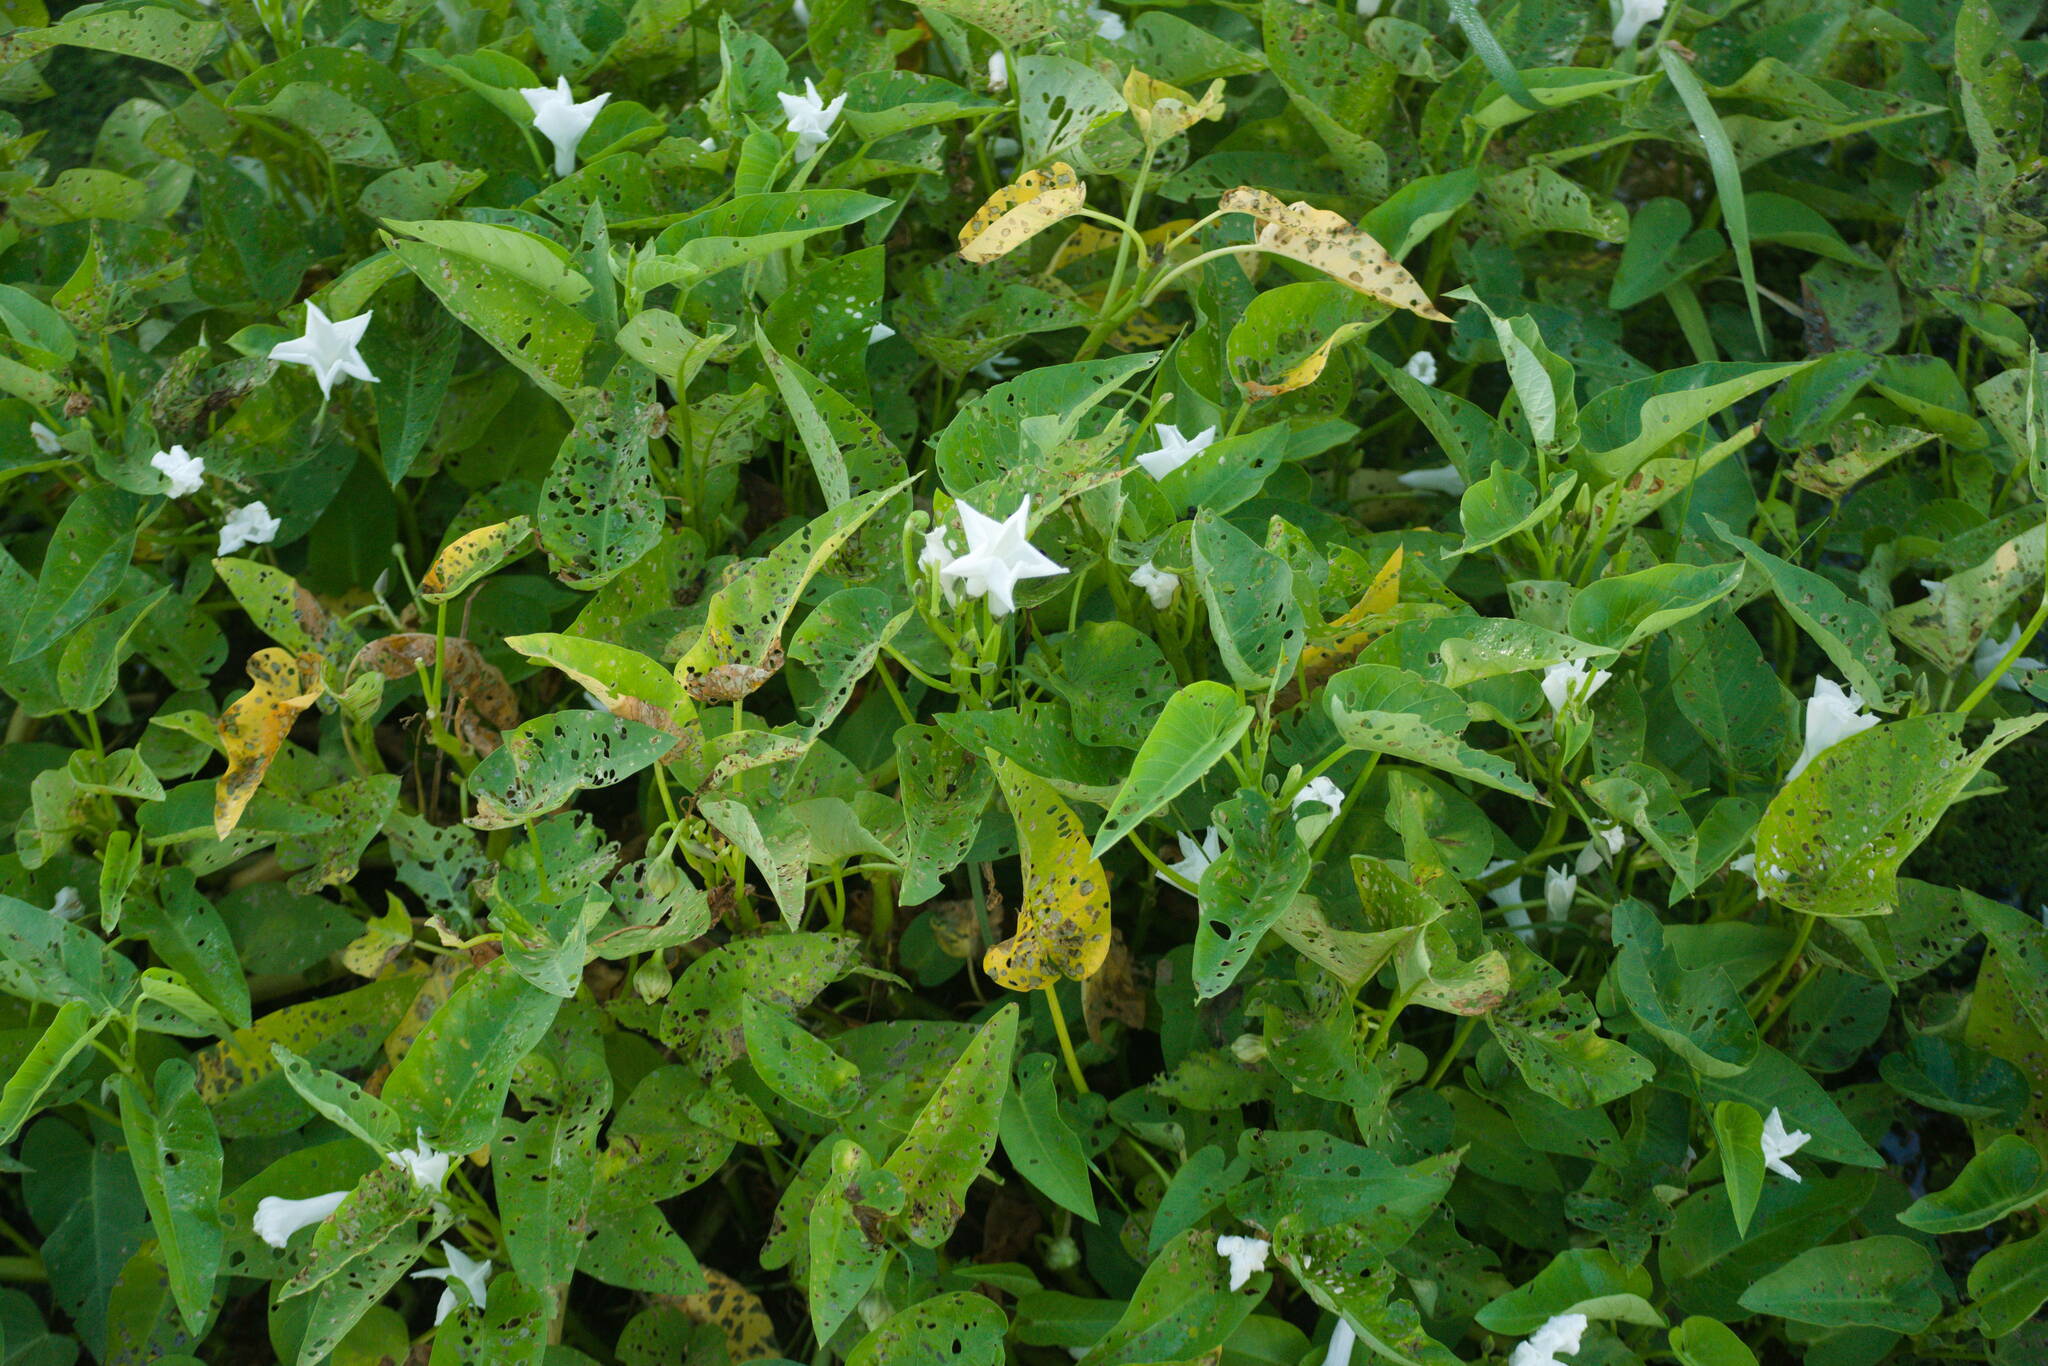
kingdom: Plantae
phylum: Tracheophyta
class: Magnoliopsida
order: Solanales
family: Convolvulaceae
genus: Ipomoea
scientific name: Ipomoea aquatica
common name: Swamp morning-glory
